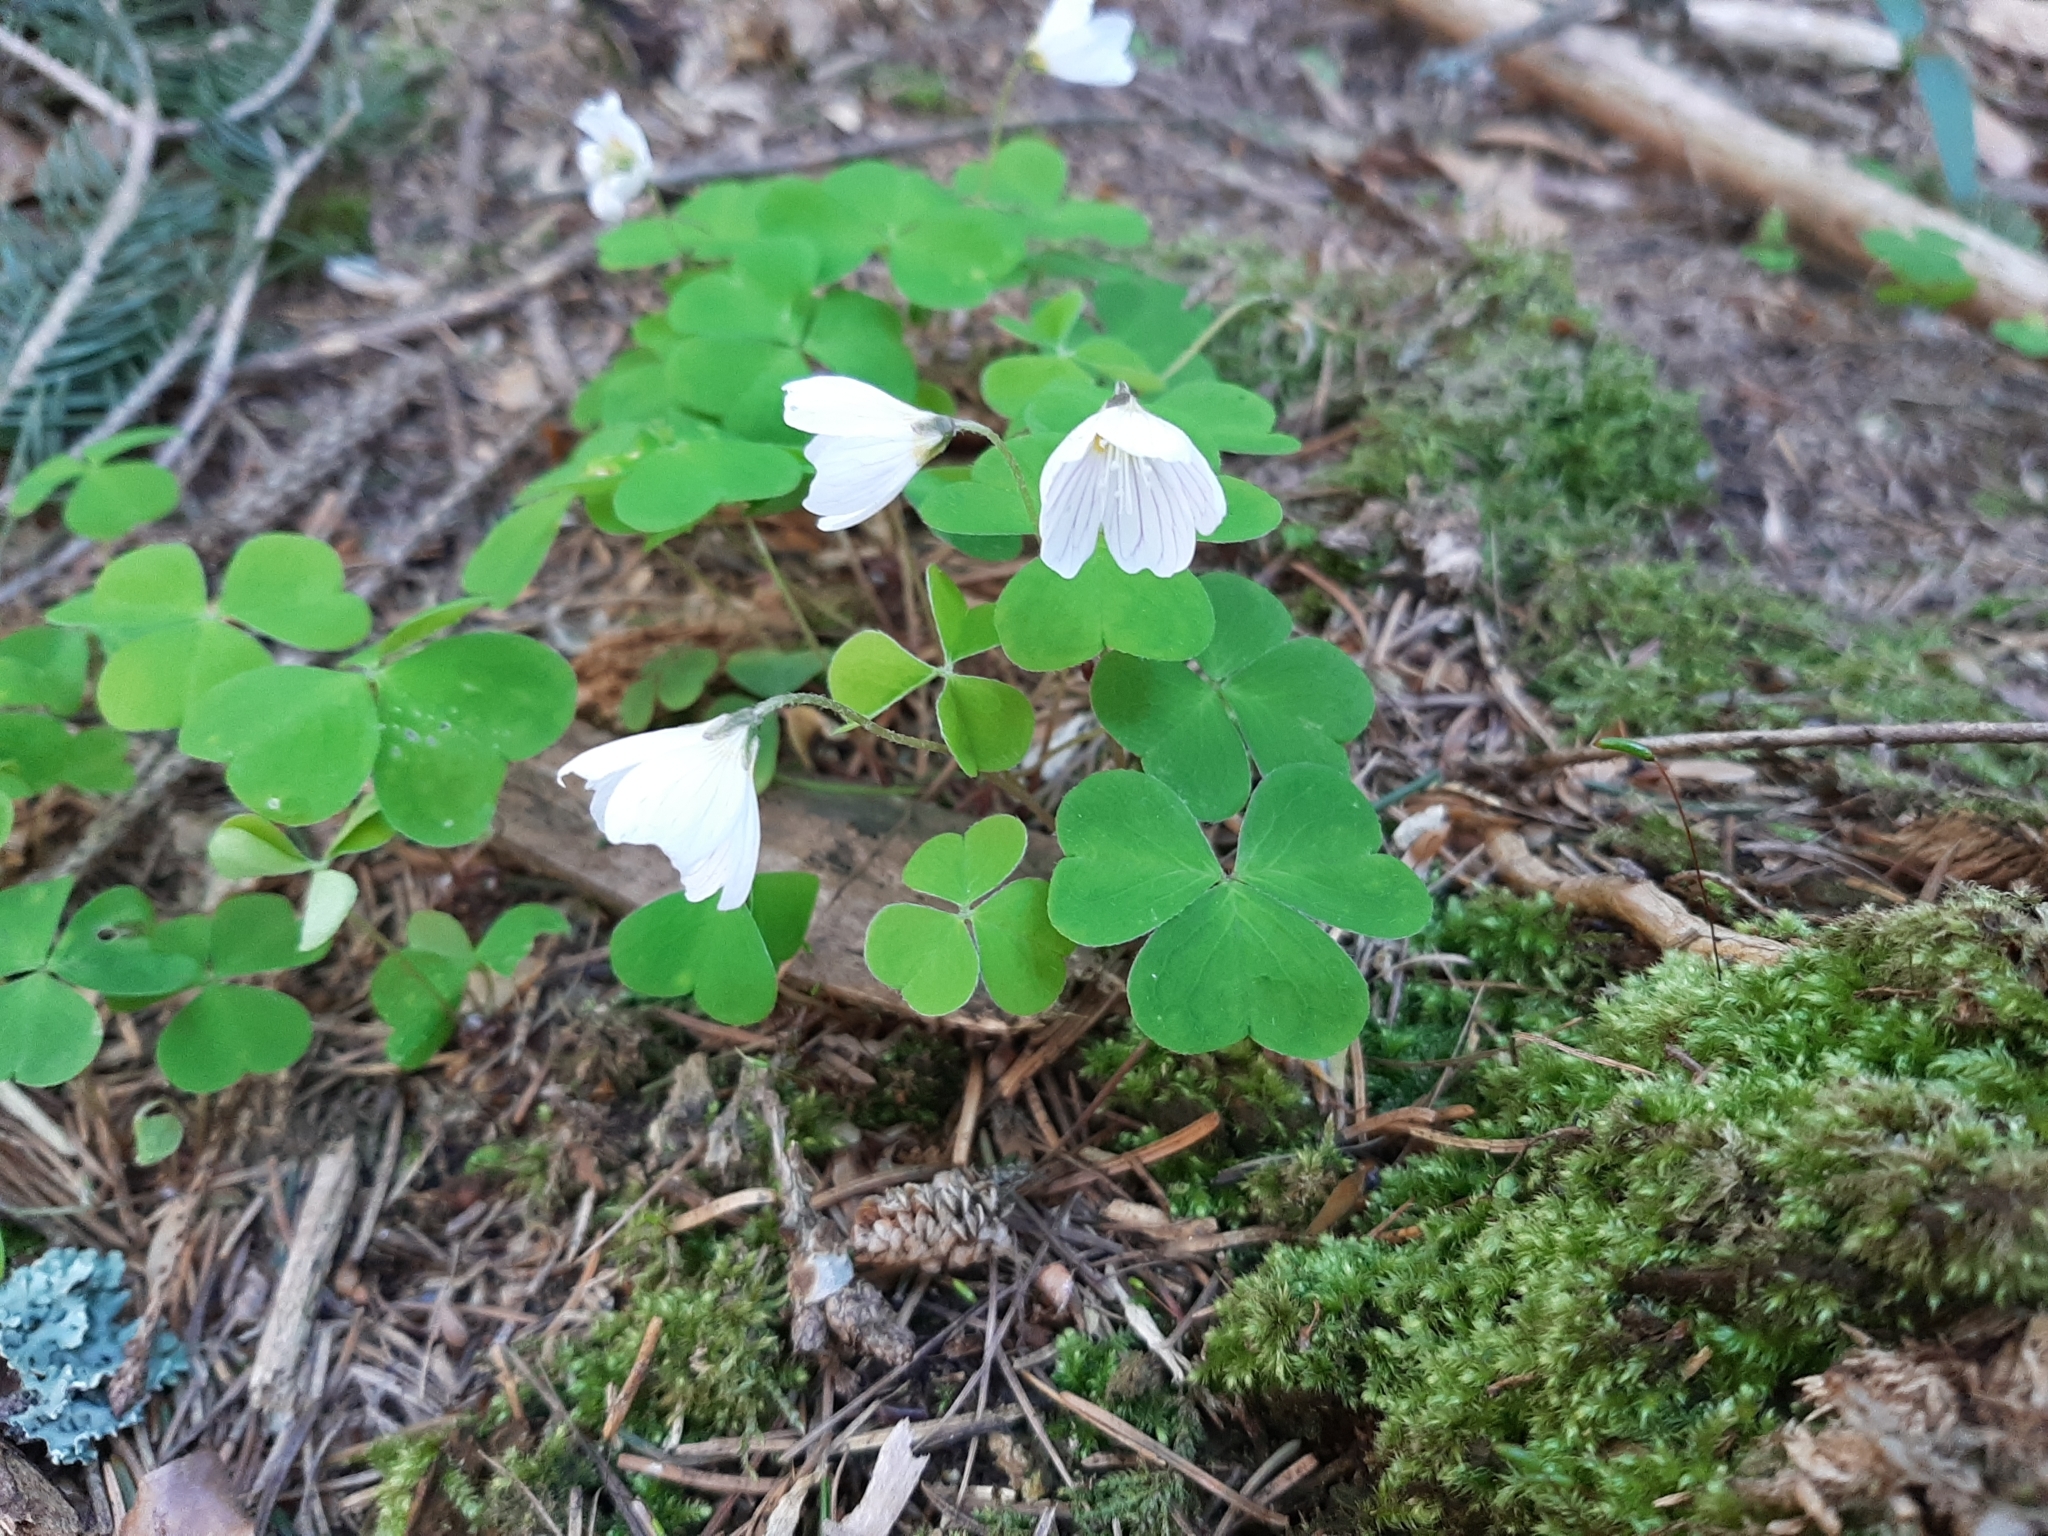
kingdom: Plantae
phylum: Tracheophyta
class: Magnoliopsida
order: Oxalidales
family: Oxalidaceae
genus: Oxalis
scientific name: Oxalis acetosella
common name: Wood-sorrel
